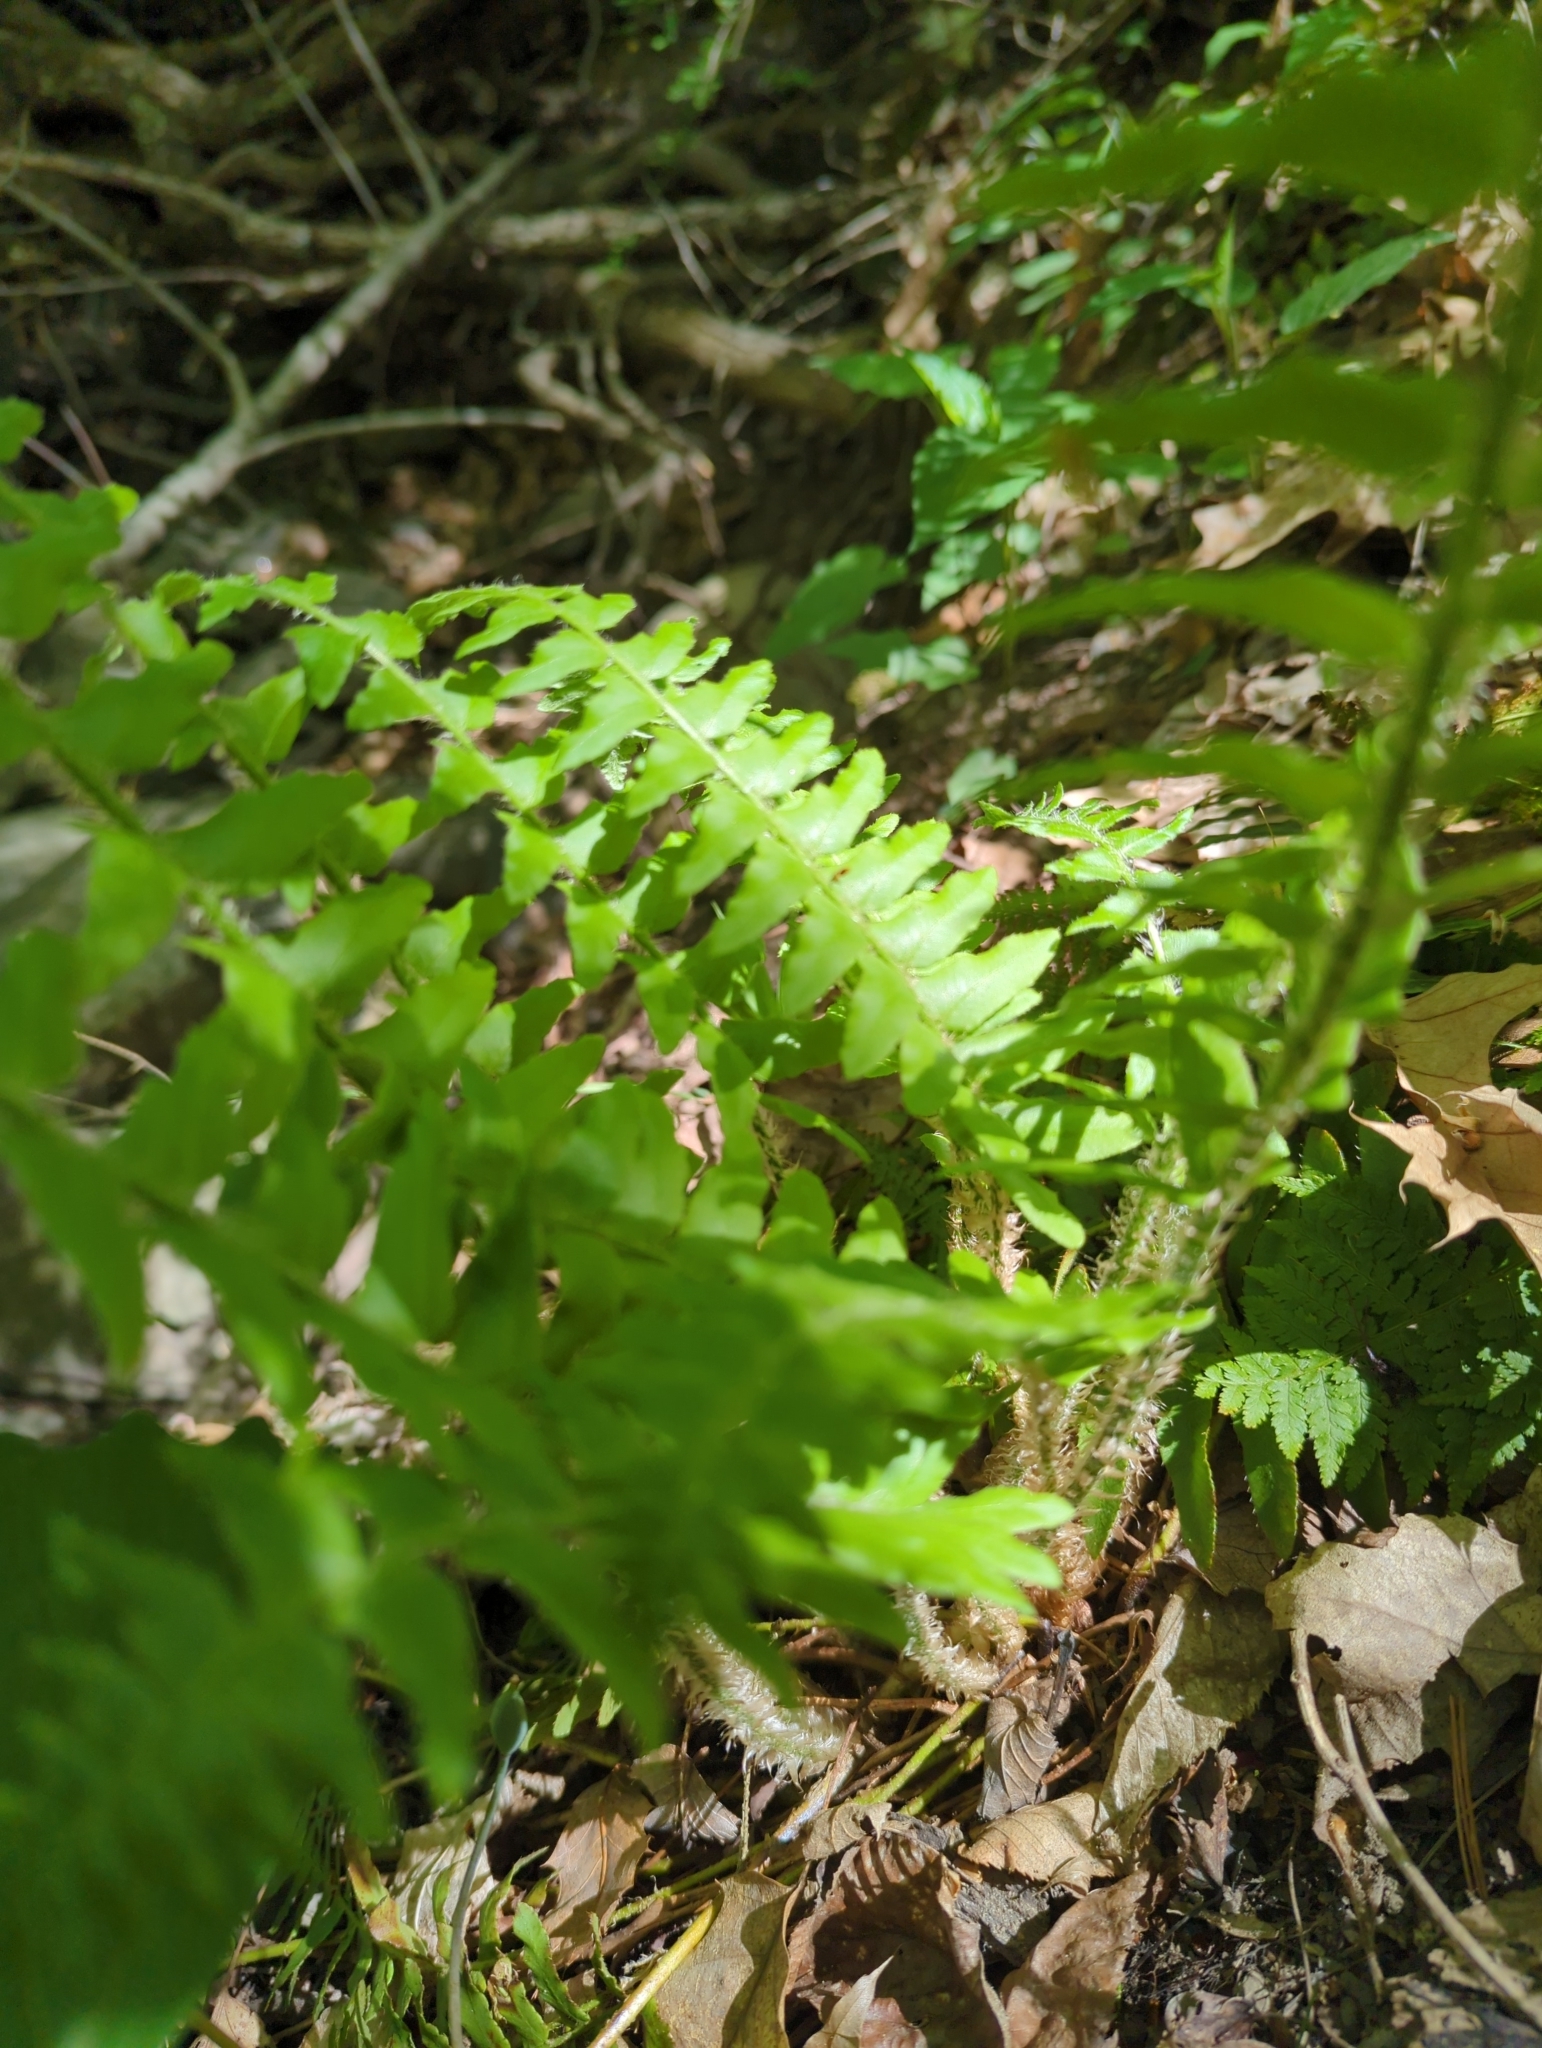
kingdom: Plantae
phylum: Tracheophyta
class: Polypodiopsida
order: Polypodiales
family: Dryopteridaceae
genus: Polystichum
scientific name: Polystichum acrostichoides
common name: Christmas fern
